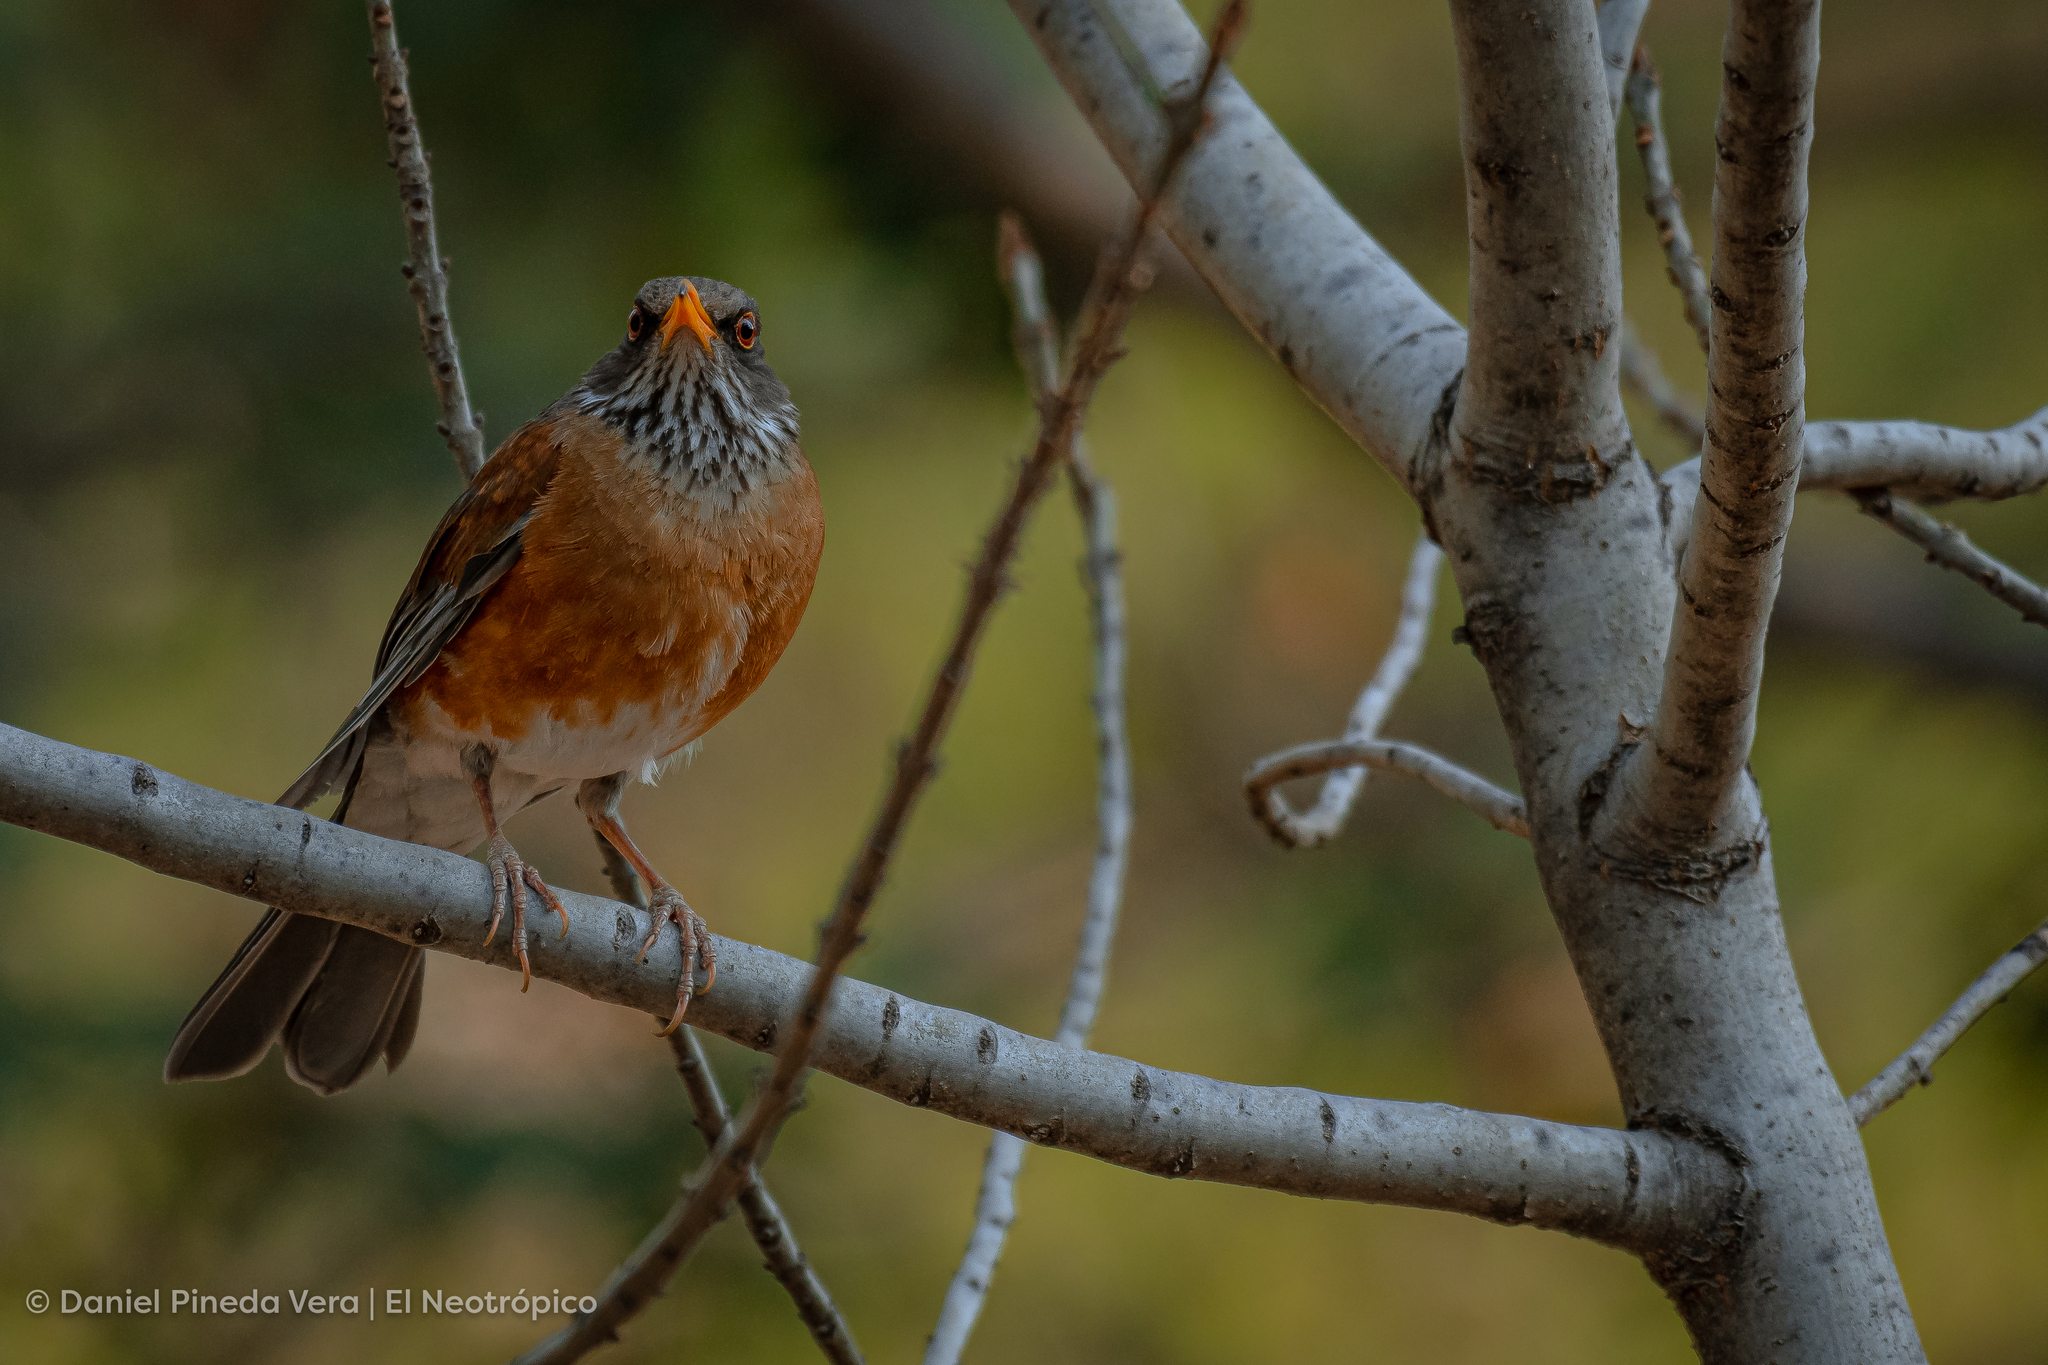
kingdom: Animalia
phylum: Chordata
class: Aves
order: Passeriformes
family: Turdidae
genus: Turdus
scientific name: Turdus rufopalliatus
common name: Rufous-backed robin
